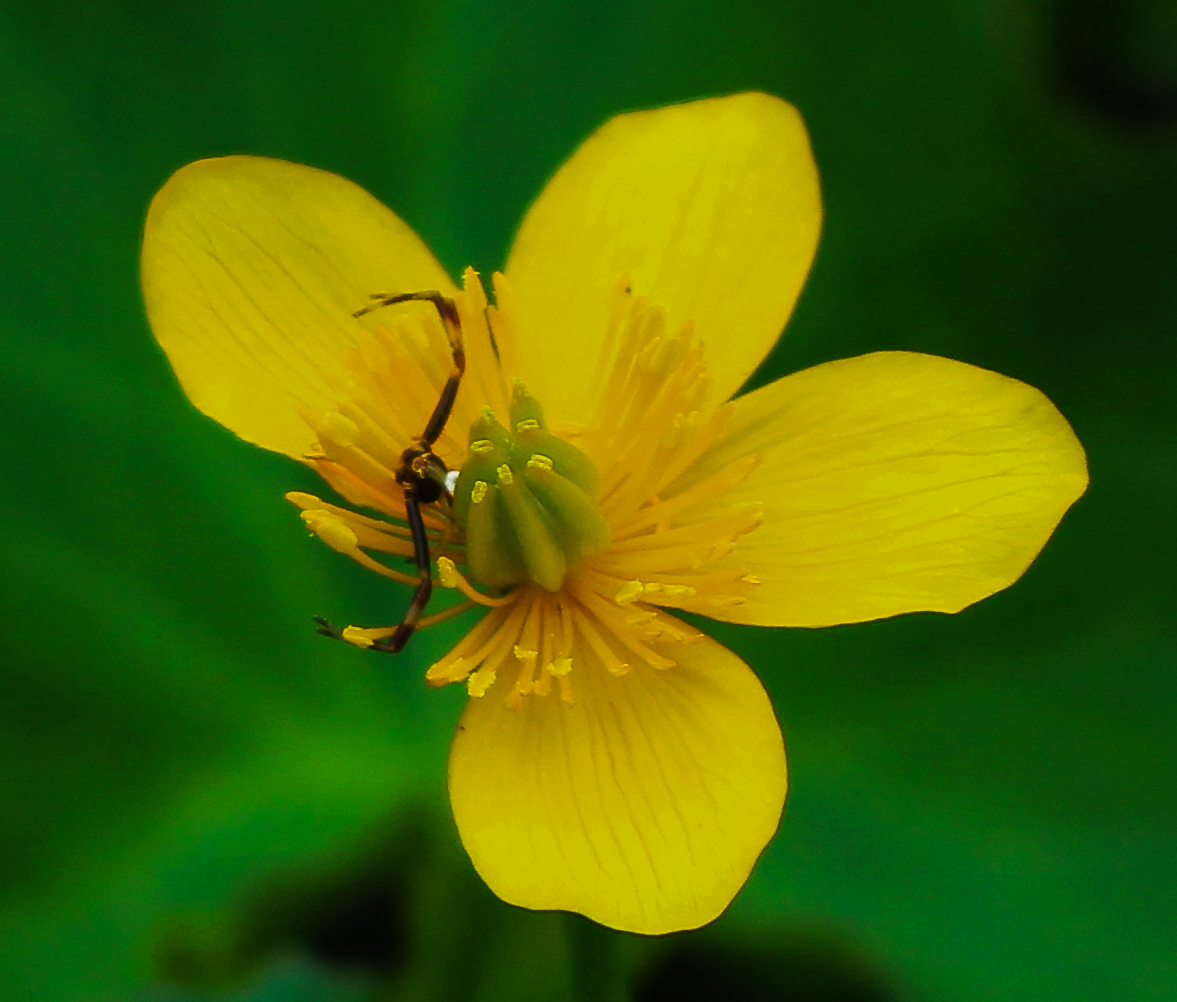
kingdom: Animalia
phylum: Arthropoda
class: Arachnida
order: Araneae
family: Thomisidae
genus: Misumena
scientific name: Misumena vatia
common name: Goldenrod crab spider
